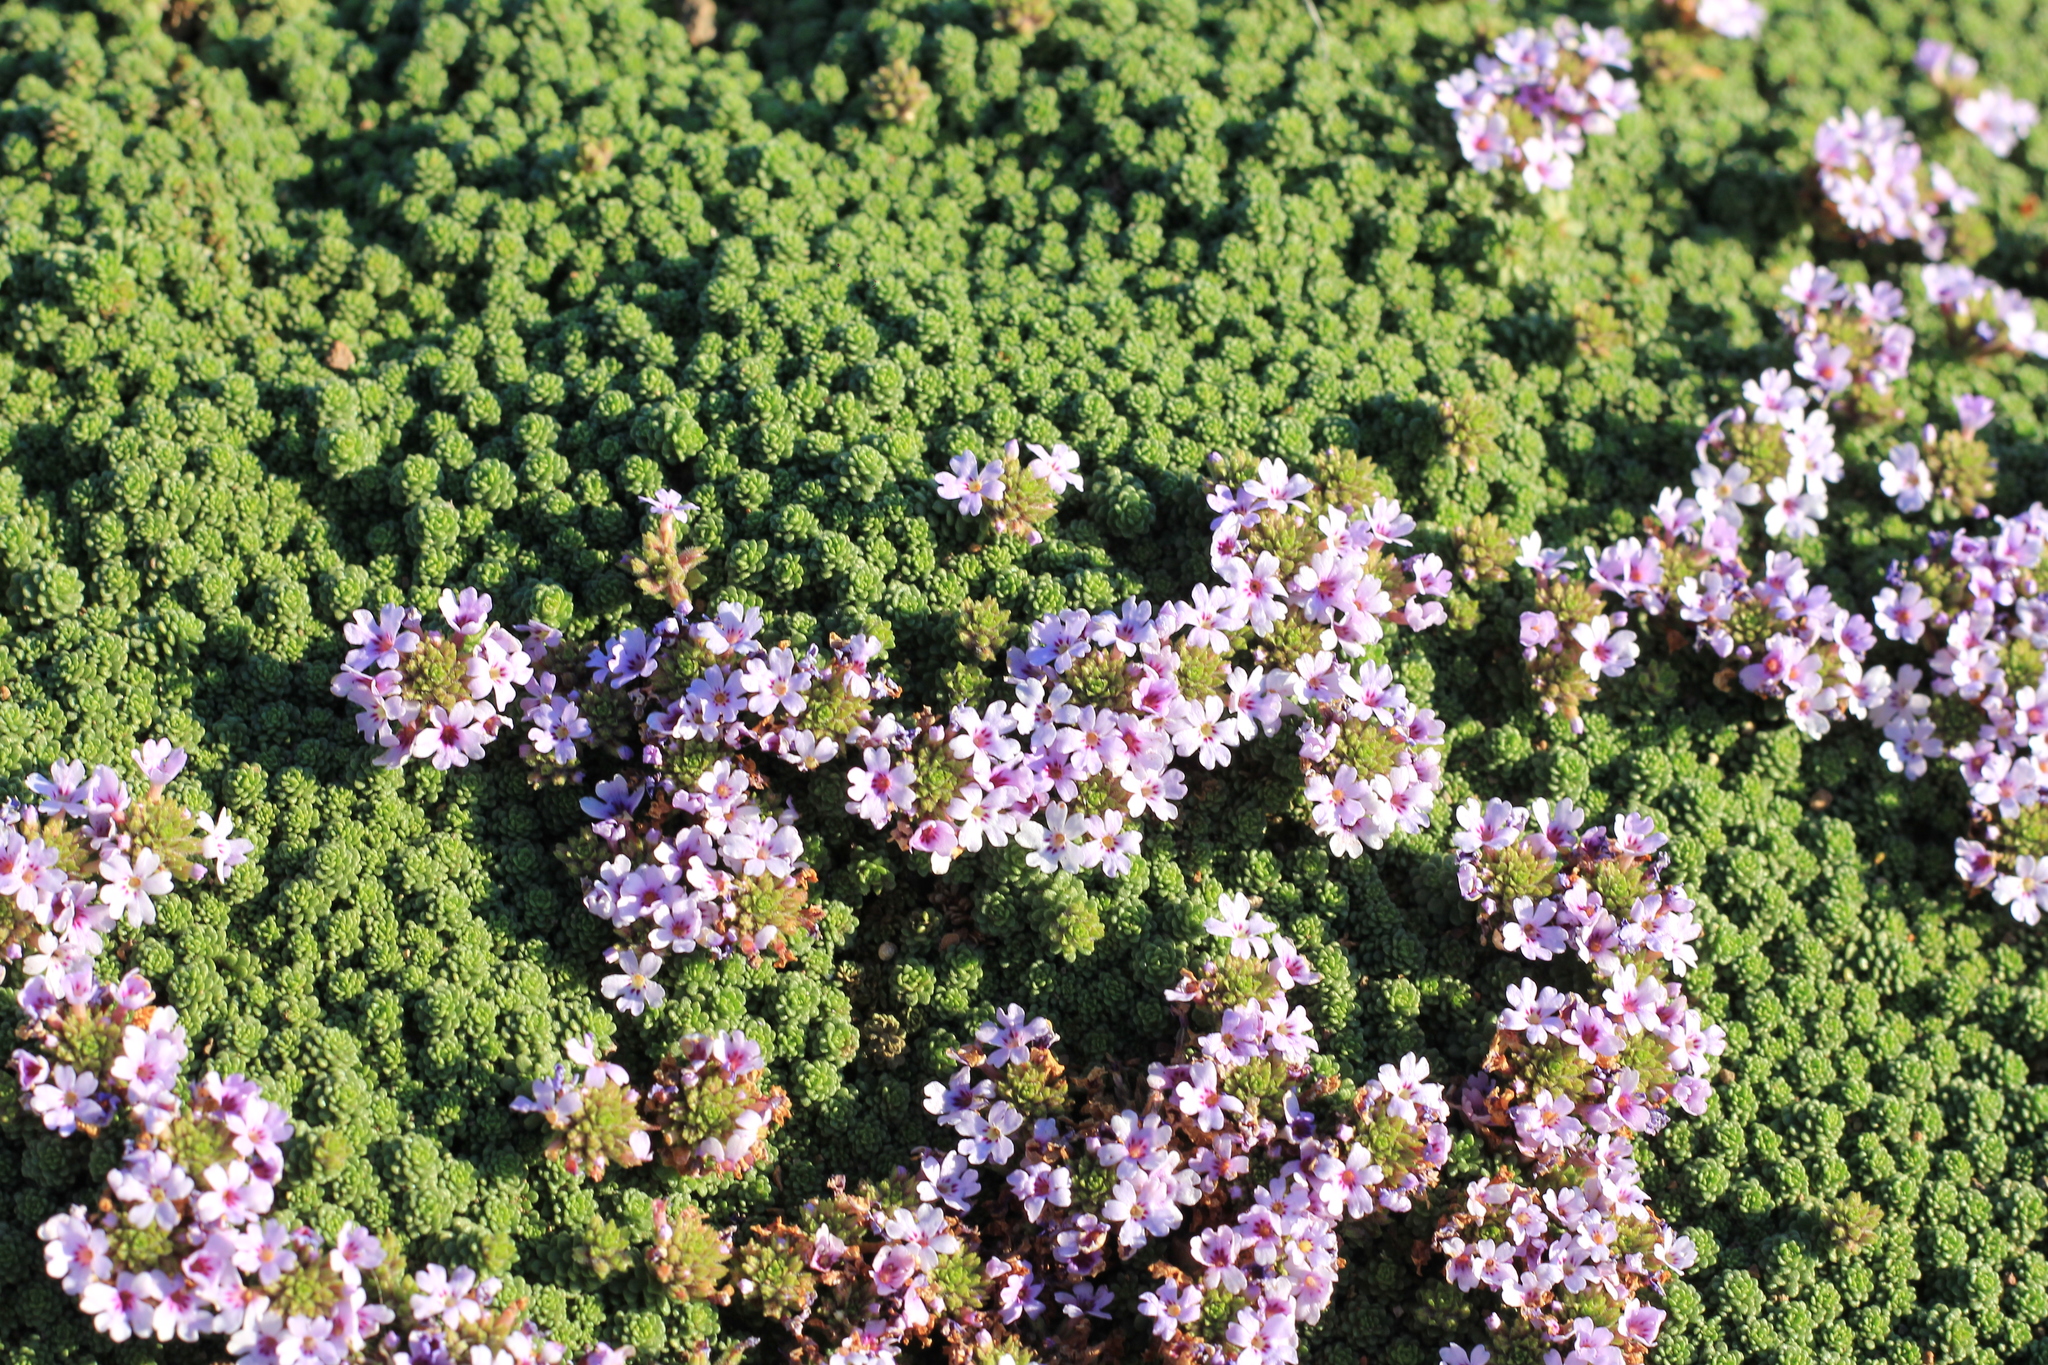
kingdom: Plantae
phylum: Tracheophyta
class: Magnoliopsida
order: Lamiales
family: Verbenaceae
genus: Junellia
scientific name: Junellia micrantha
